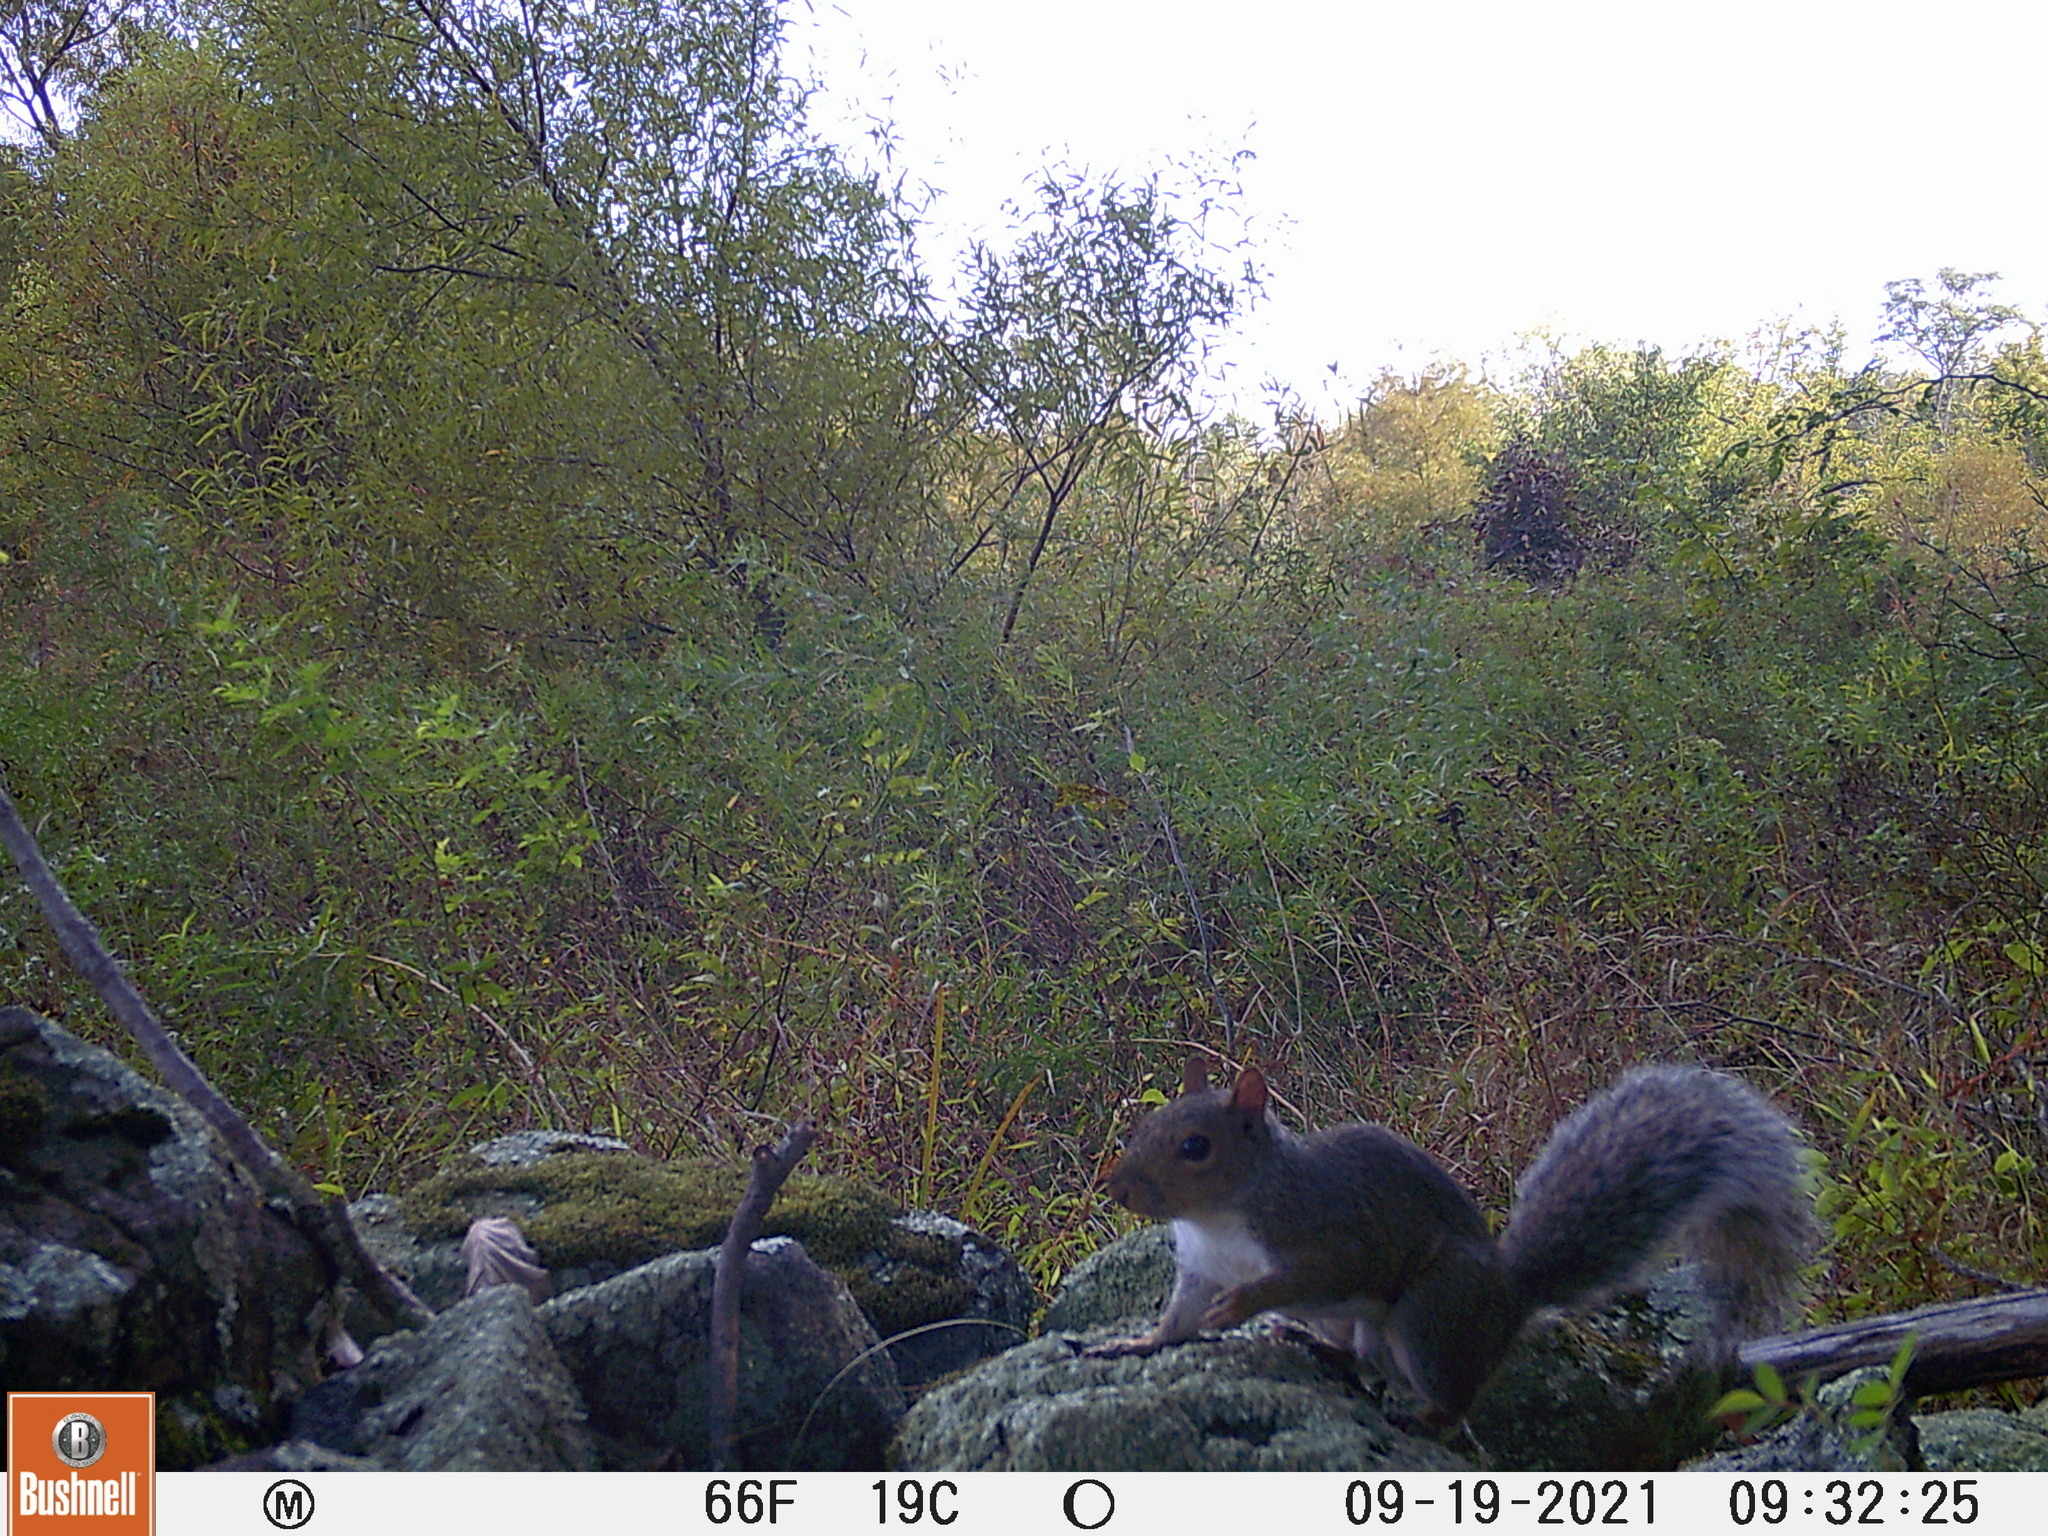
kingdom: Animalia
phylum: Chordata
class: Mammalia
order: Rodentia
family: Sciuridae
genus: Sciurus
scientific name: Sciurus carolinensis
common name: Eastern gray squirrel
